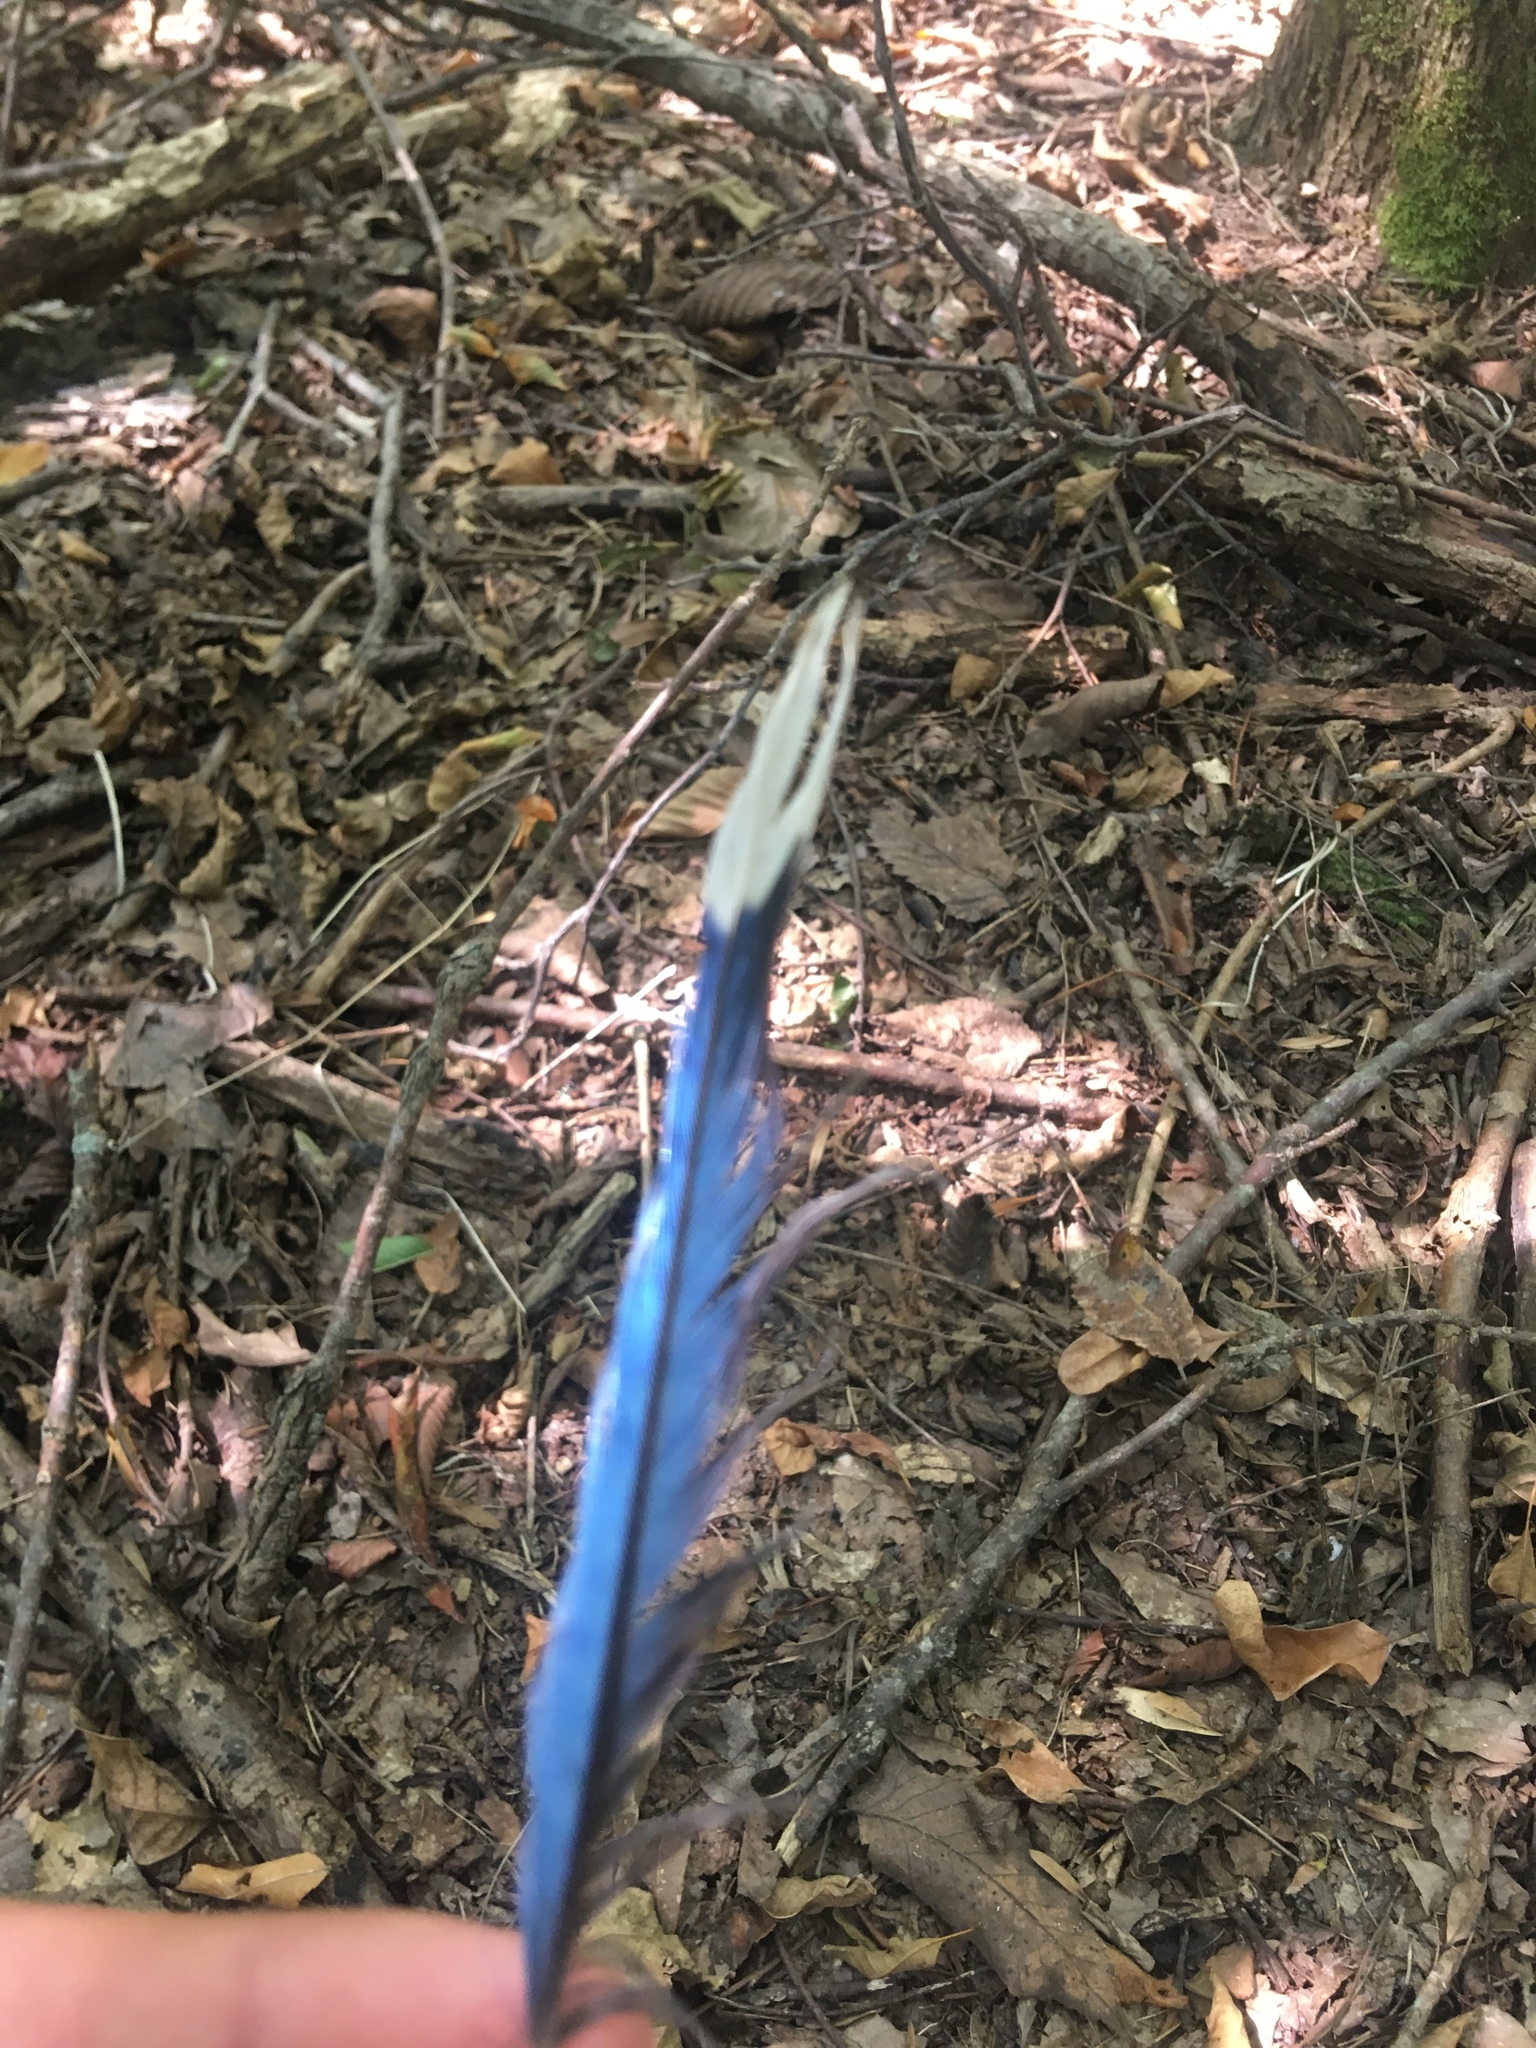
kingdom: Animalia
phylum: Chordata
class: Aves
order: Passeriformes
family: Corvidae
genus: Cyanocitta
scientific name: Cyanocitta cristata
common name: Blue jay
